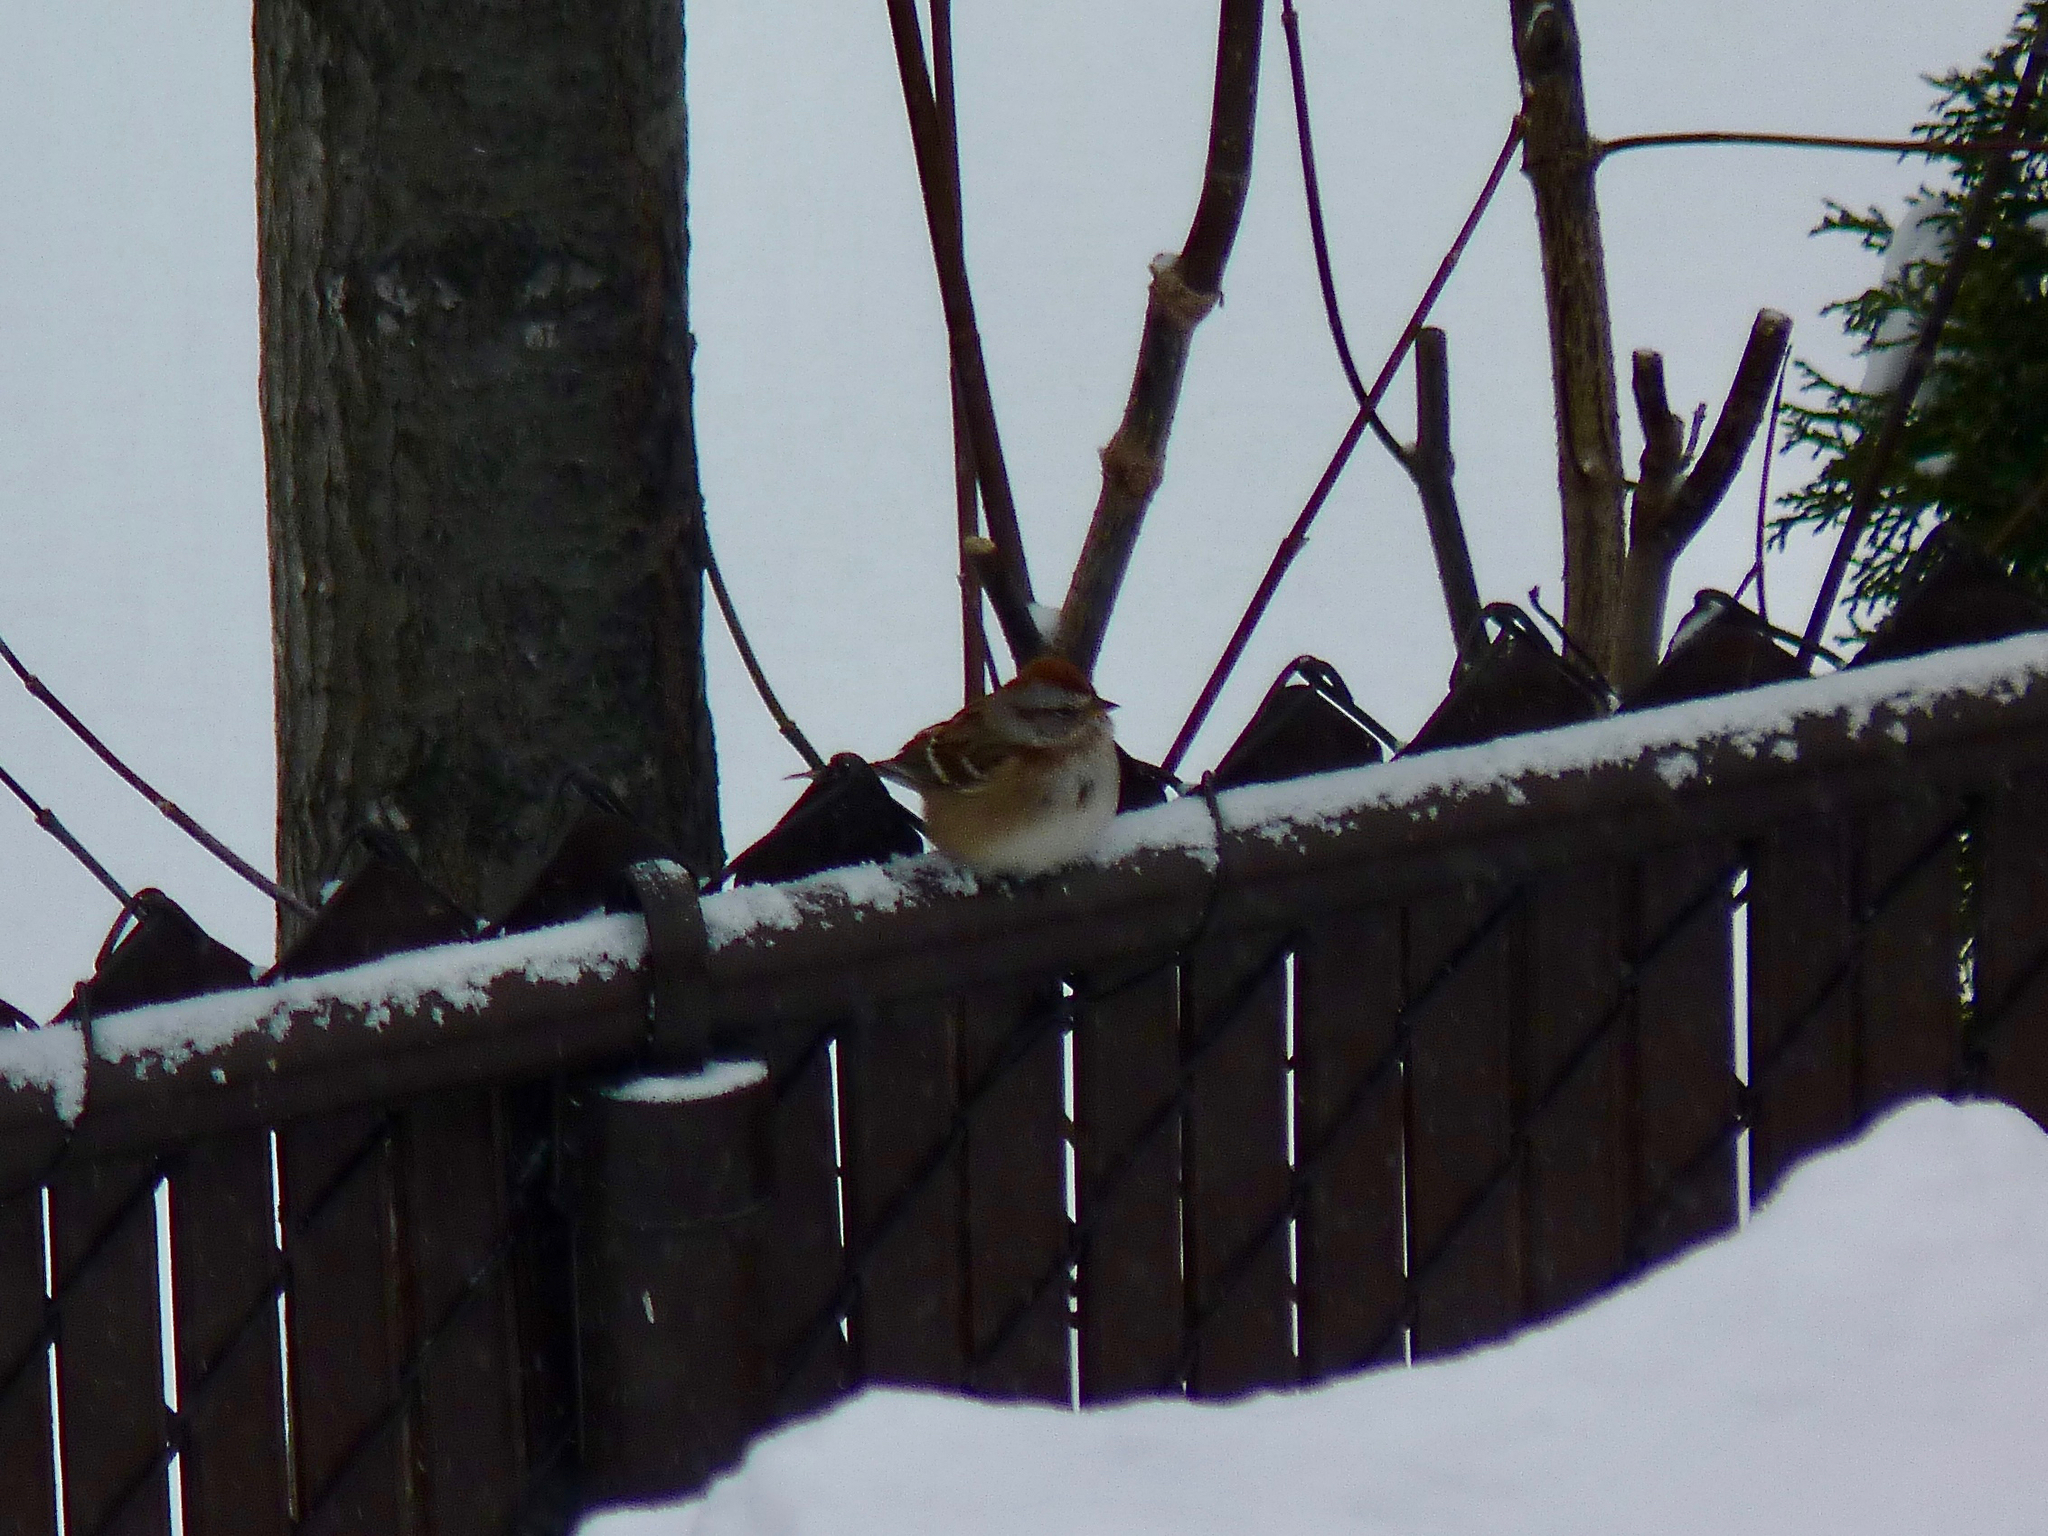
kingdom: Animalia
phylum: Chordata
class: Aves
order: Passeriformes
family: Passerellidae
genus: Spizelloides
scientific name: Spizelloides arborea
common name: American tree sparrow
